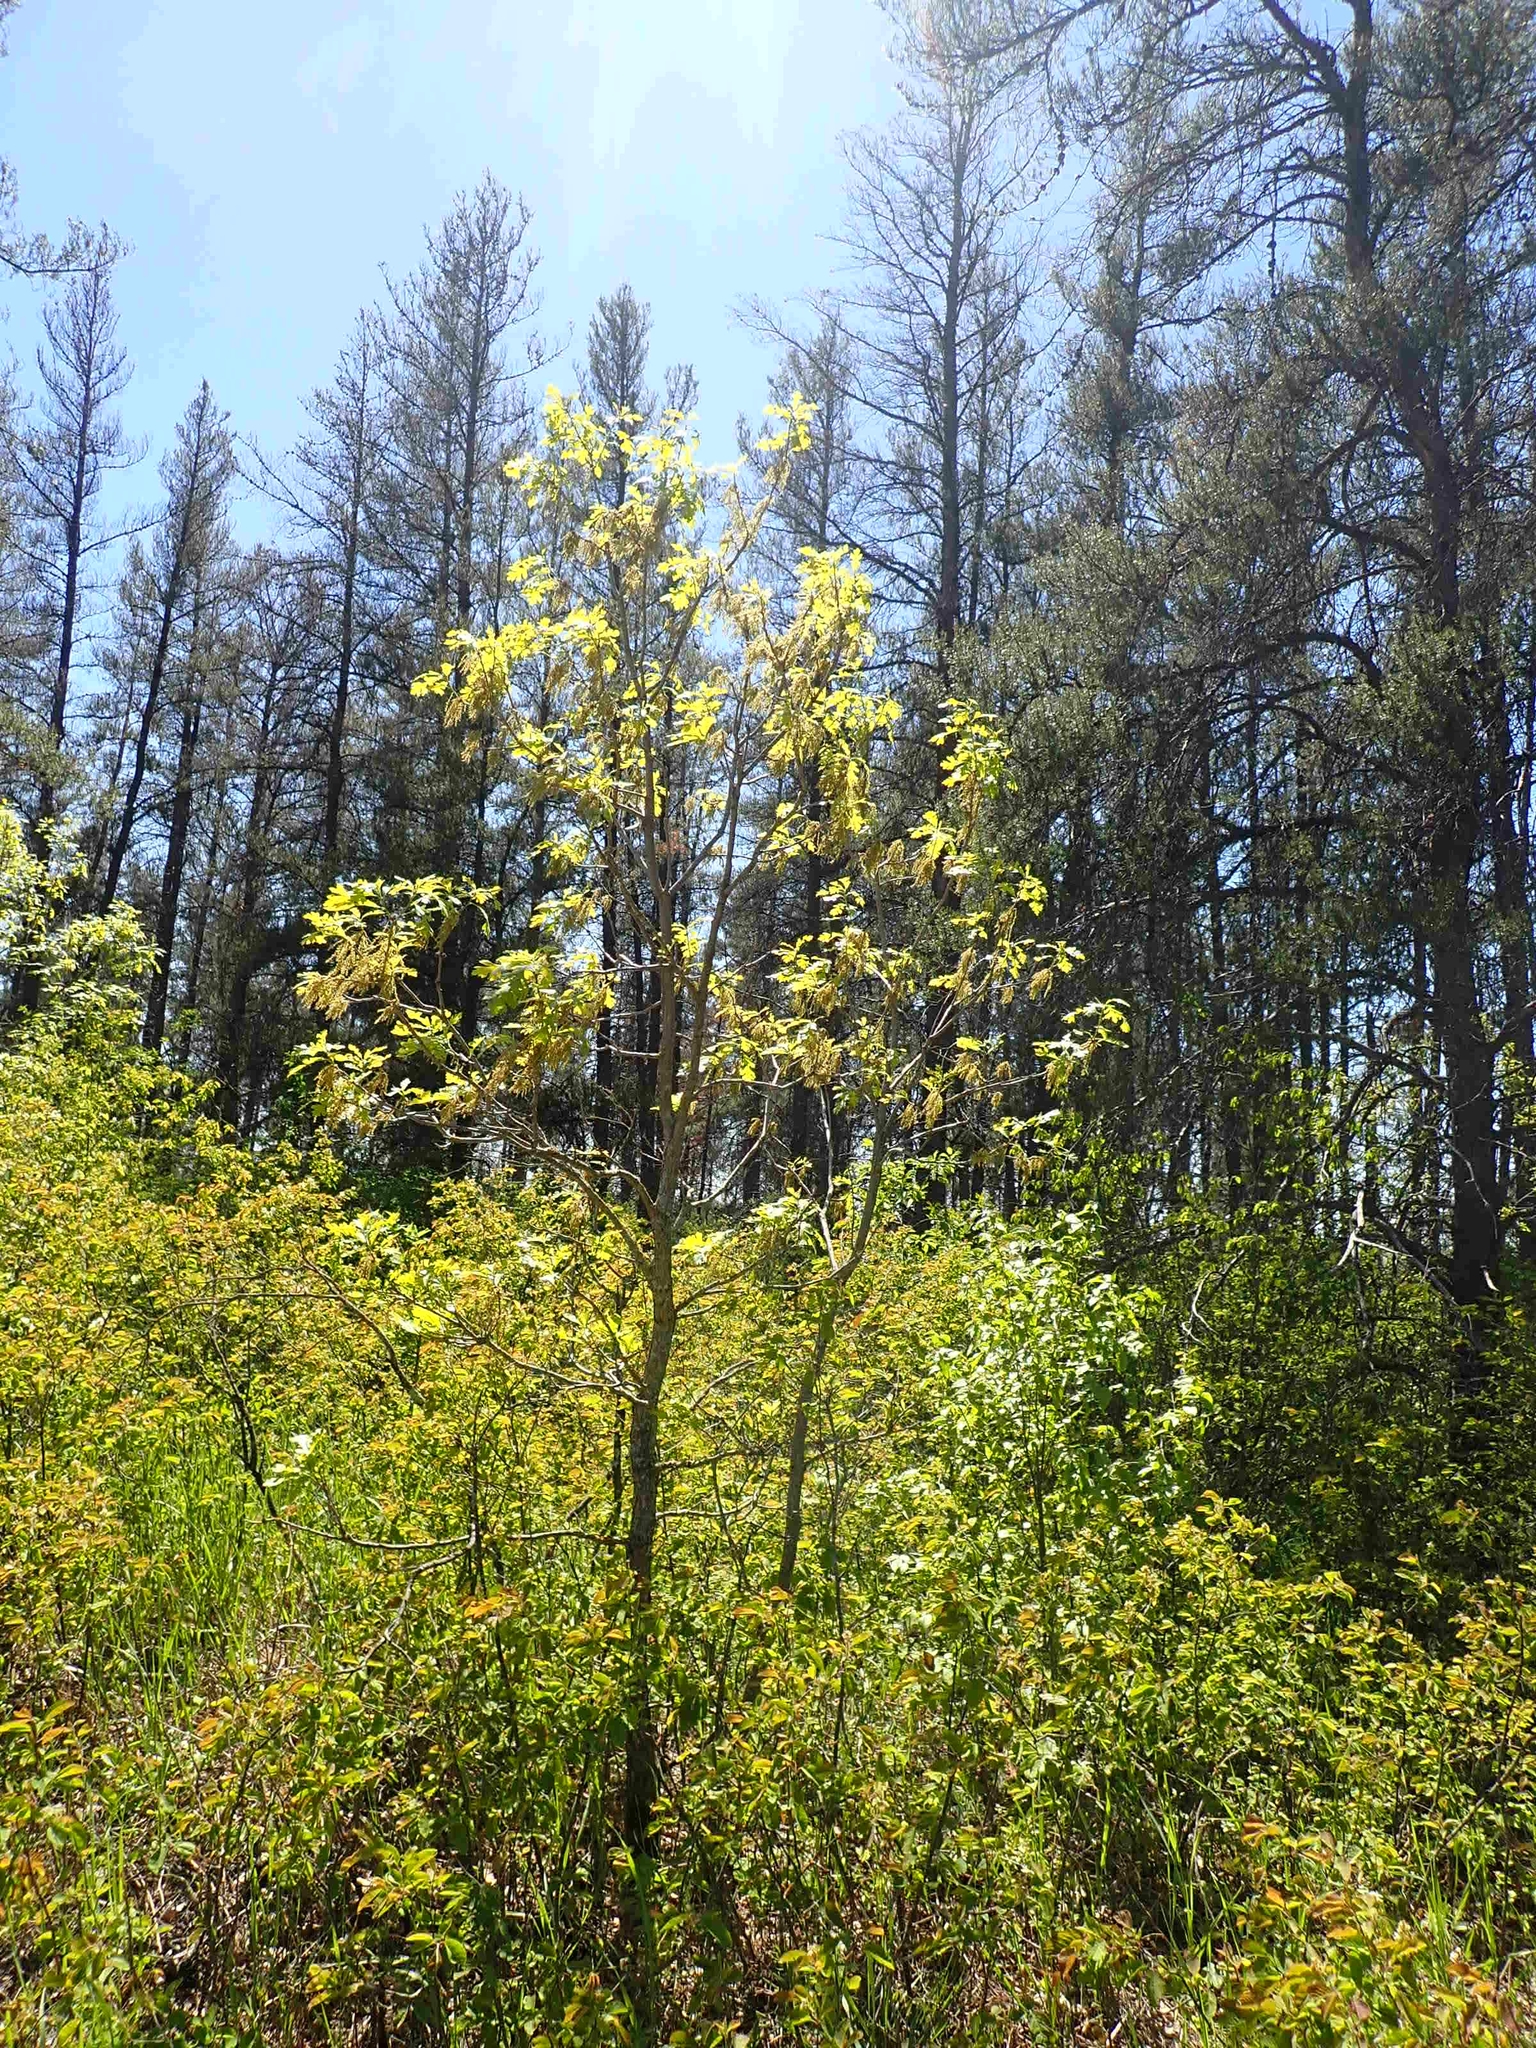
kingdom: Plantae
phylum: Tracheophyta
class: Magnoliopsida
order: Fagales
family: Fagaceae
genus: Quercus
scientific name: Quercus macrocarpa
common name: Bur oak
